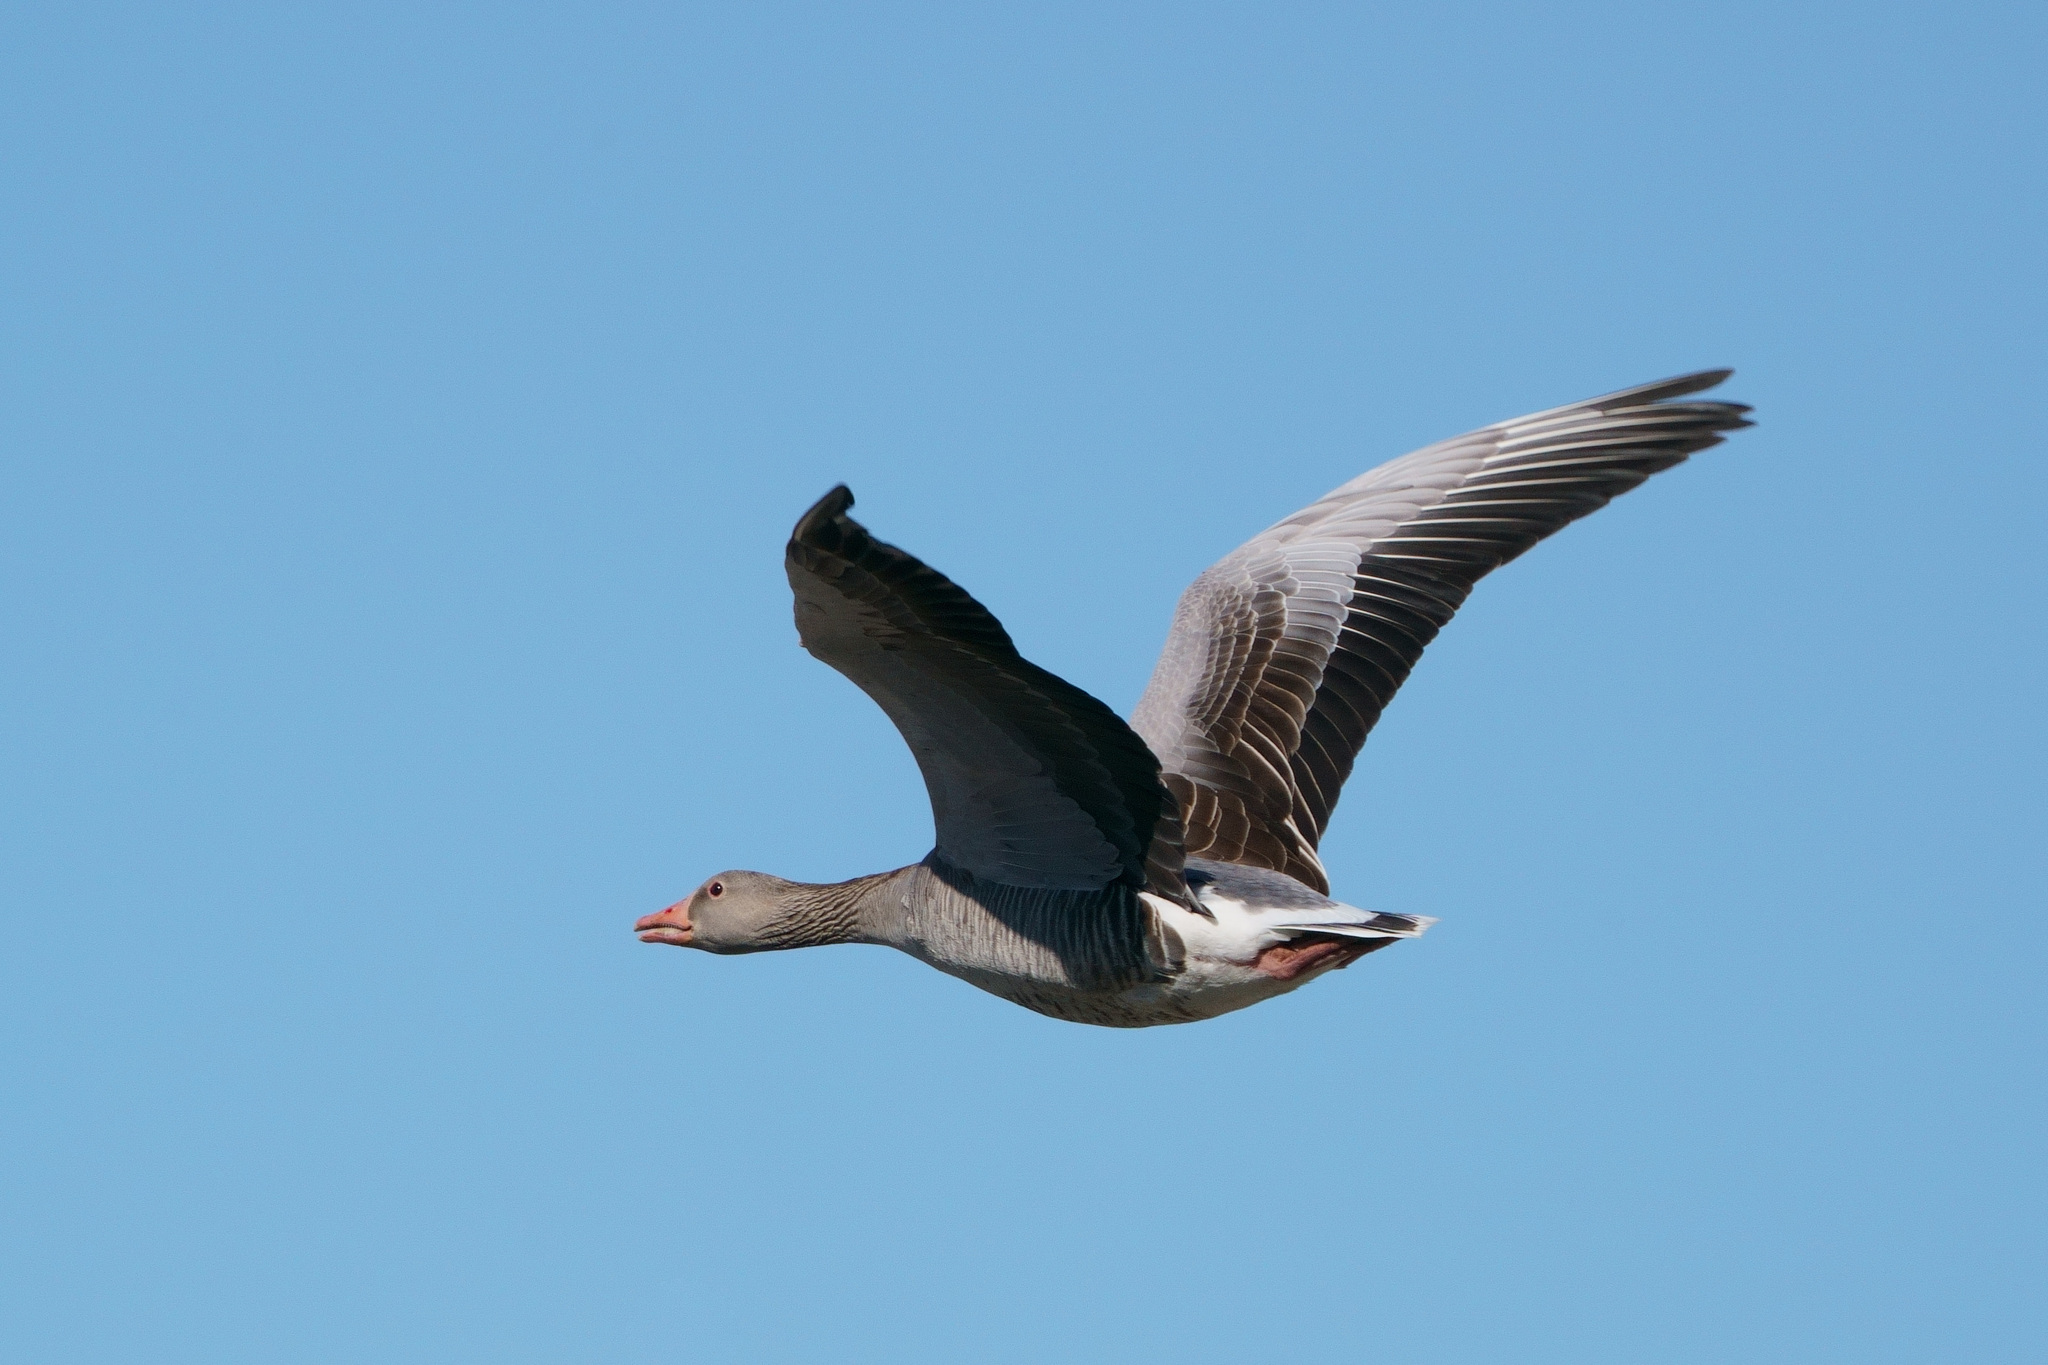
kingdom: Animalia
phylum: Chordata
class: Aves
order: Anseriformes
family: Anatidae
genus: Anser
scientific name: Anser anser
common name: Greylag goose
